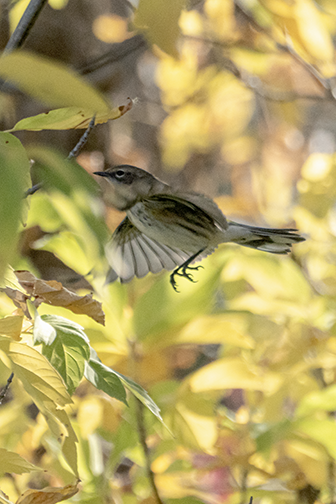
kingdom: Animalia
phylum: Chordata
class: Aves
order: Passeriformes
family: Parulidae
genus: Setophaga
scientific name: Setophaga coronata
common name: Myrtle warbler
